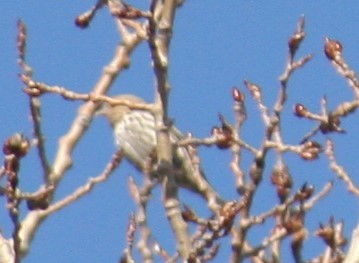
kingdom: Animalia
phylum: Chordata
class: Aves
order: Passeriformes
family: Fringillidae
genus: Spinus
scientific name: Spinus pinus
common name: Pine siskin
